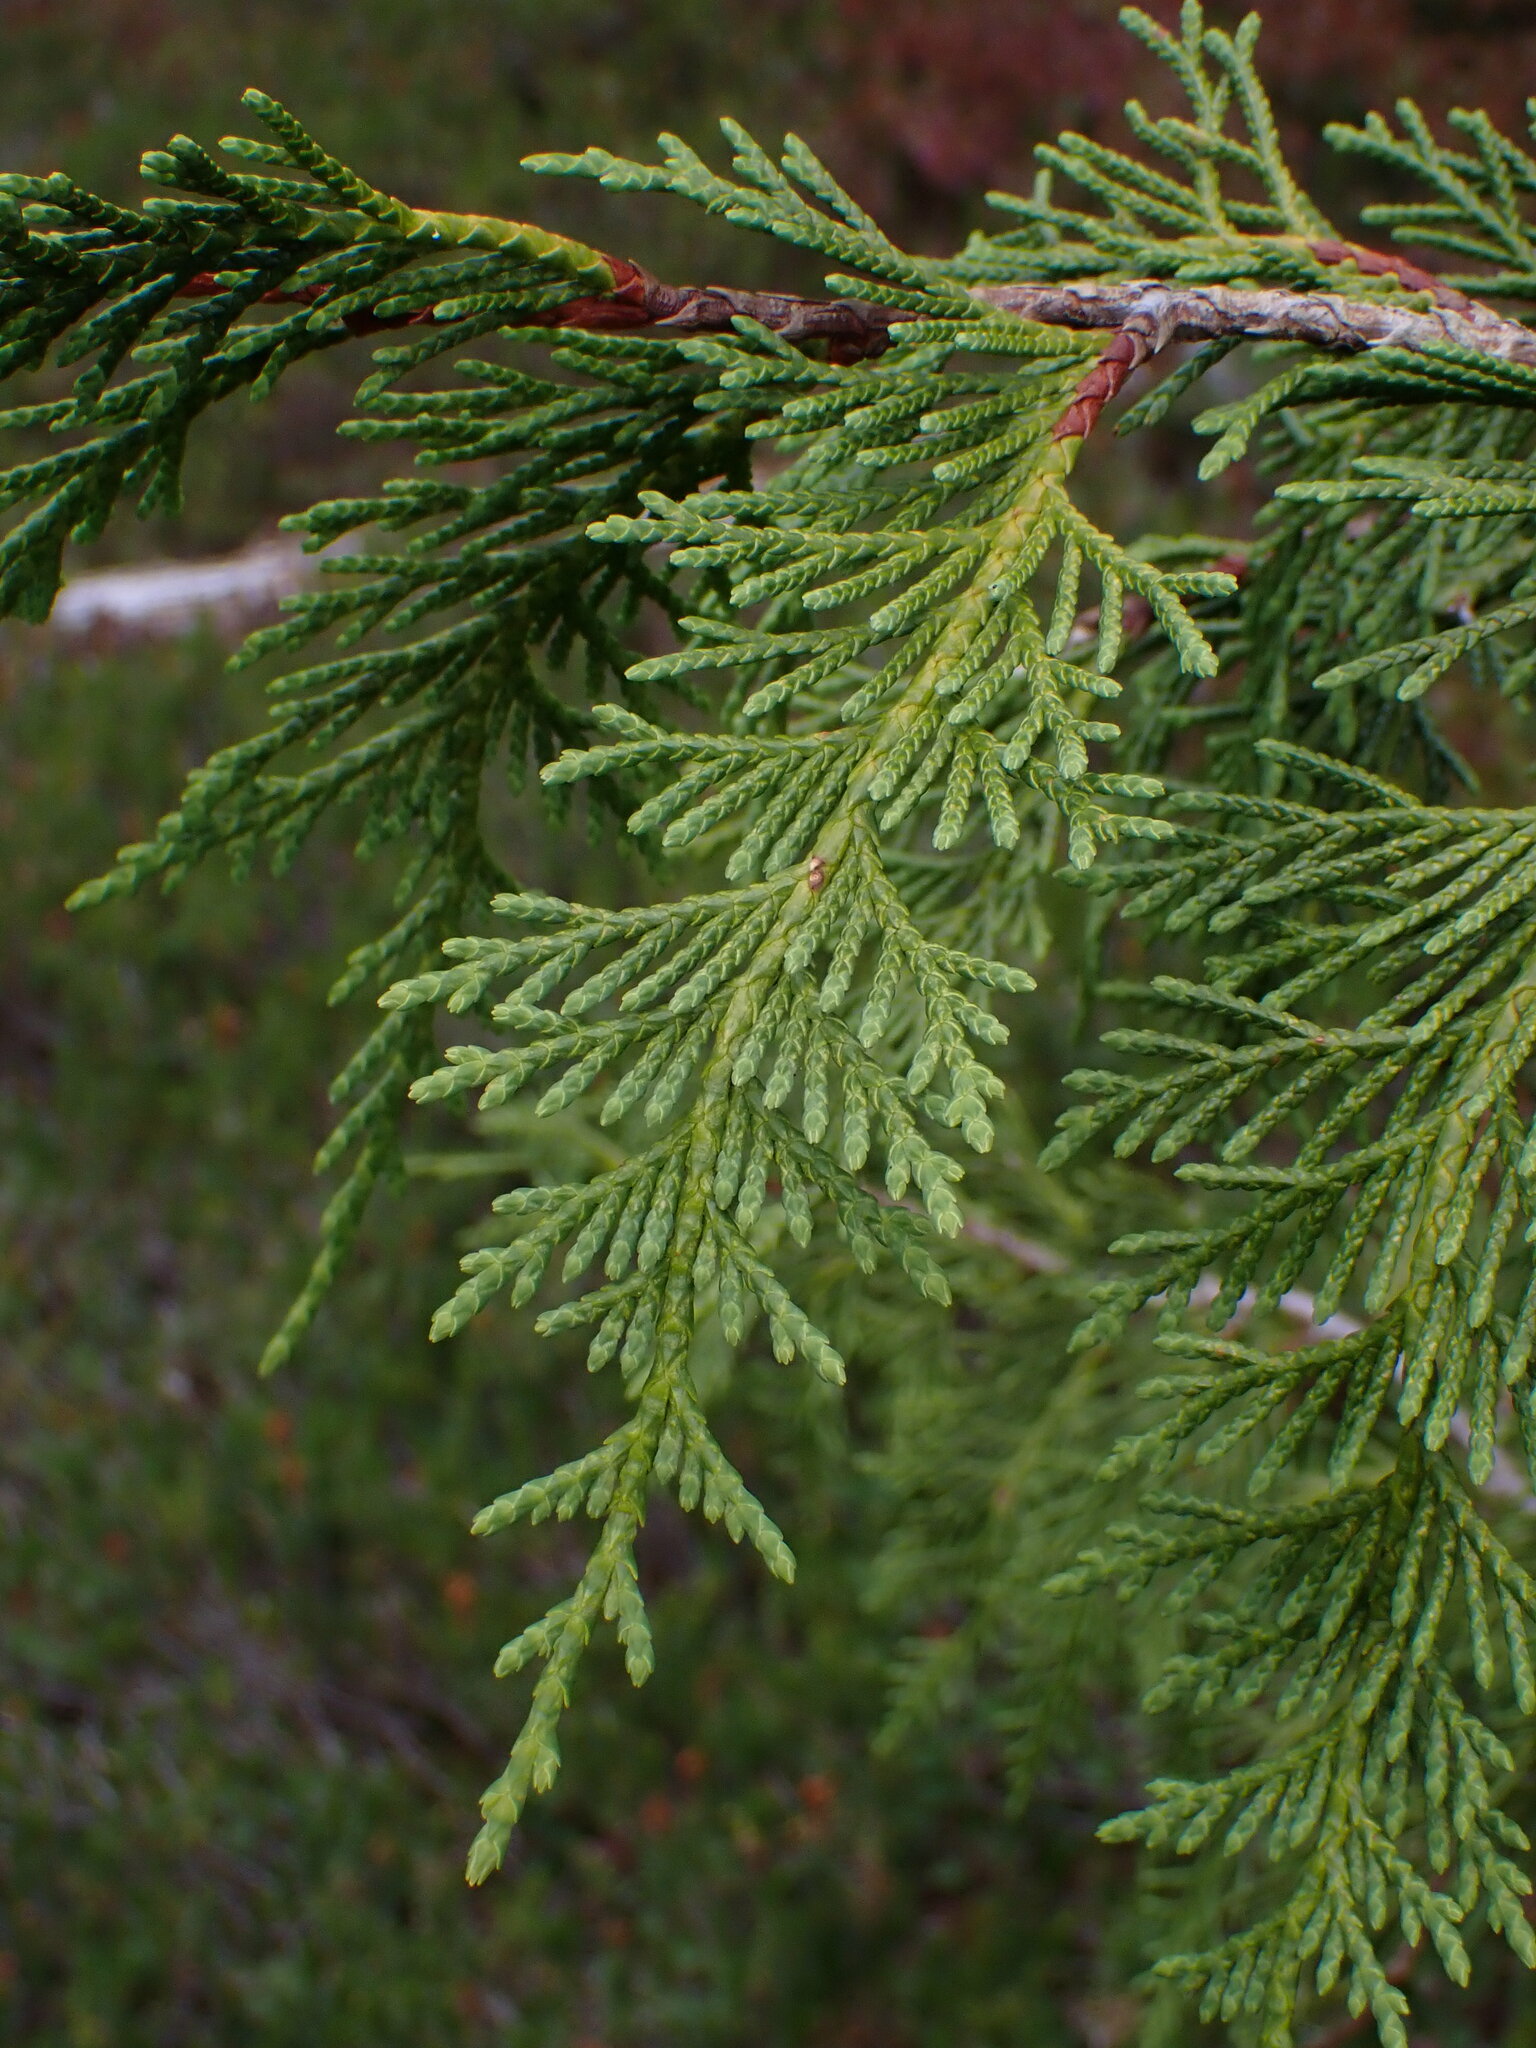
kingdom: Plantae
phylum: Tracheophyta
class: Pinopsida
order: Pinales
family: Cupressaceae
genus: Xanthocyparis
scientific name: Xanthocyparis nootkatensis
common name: Nootka cypress
